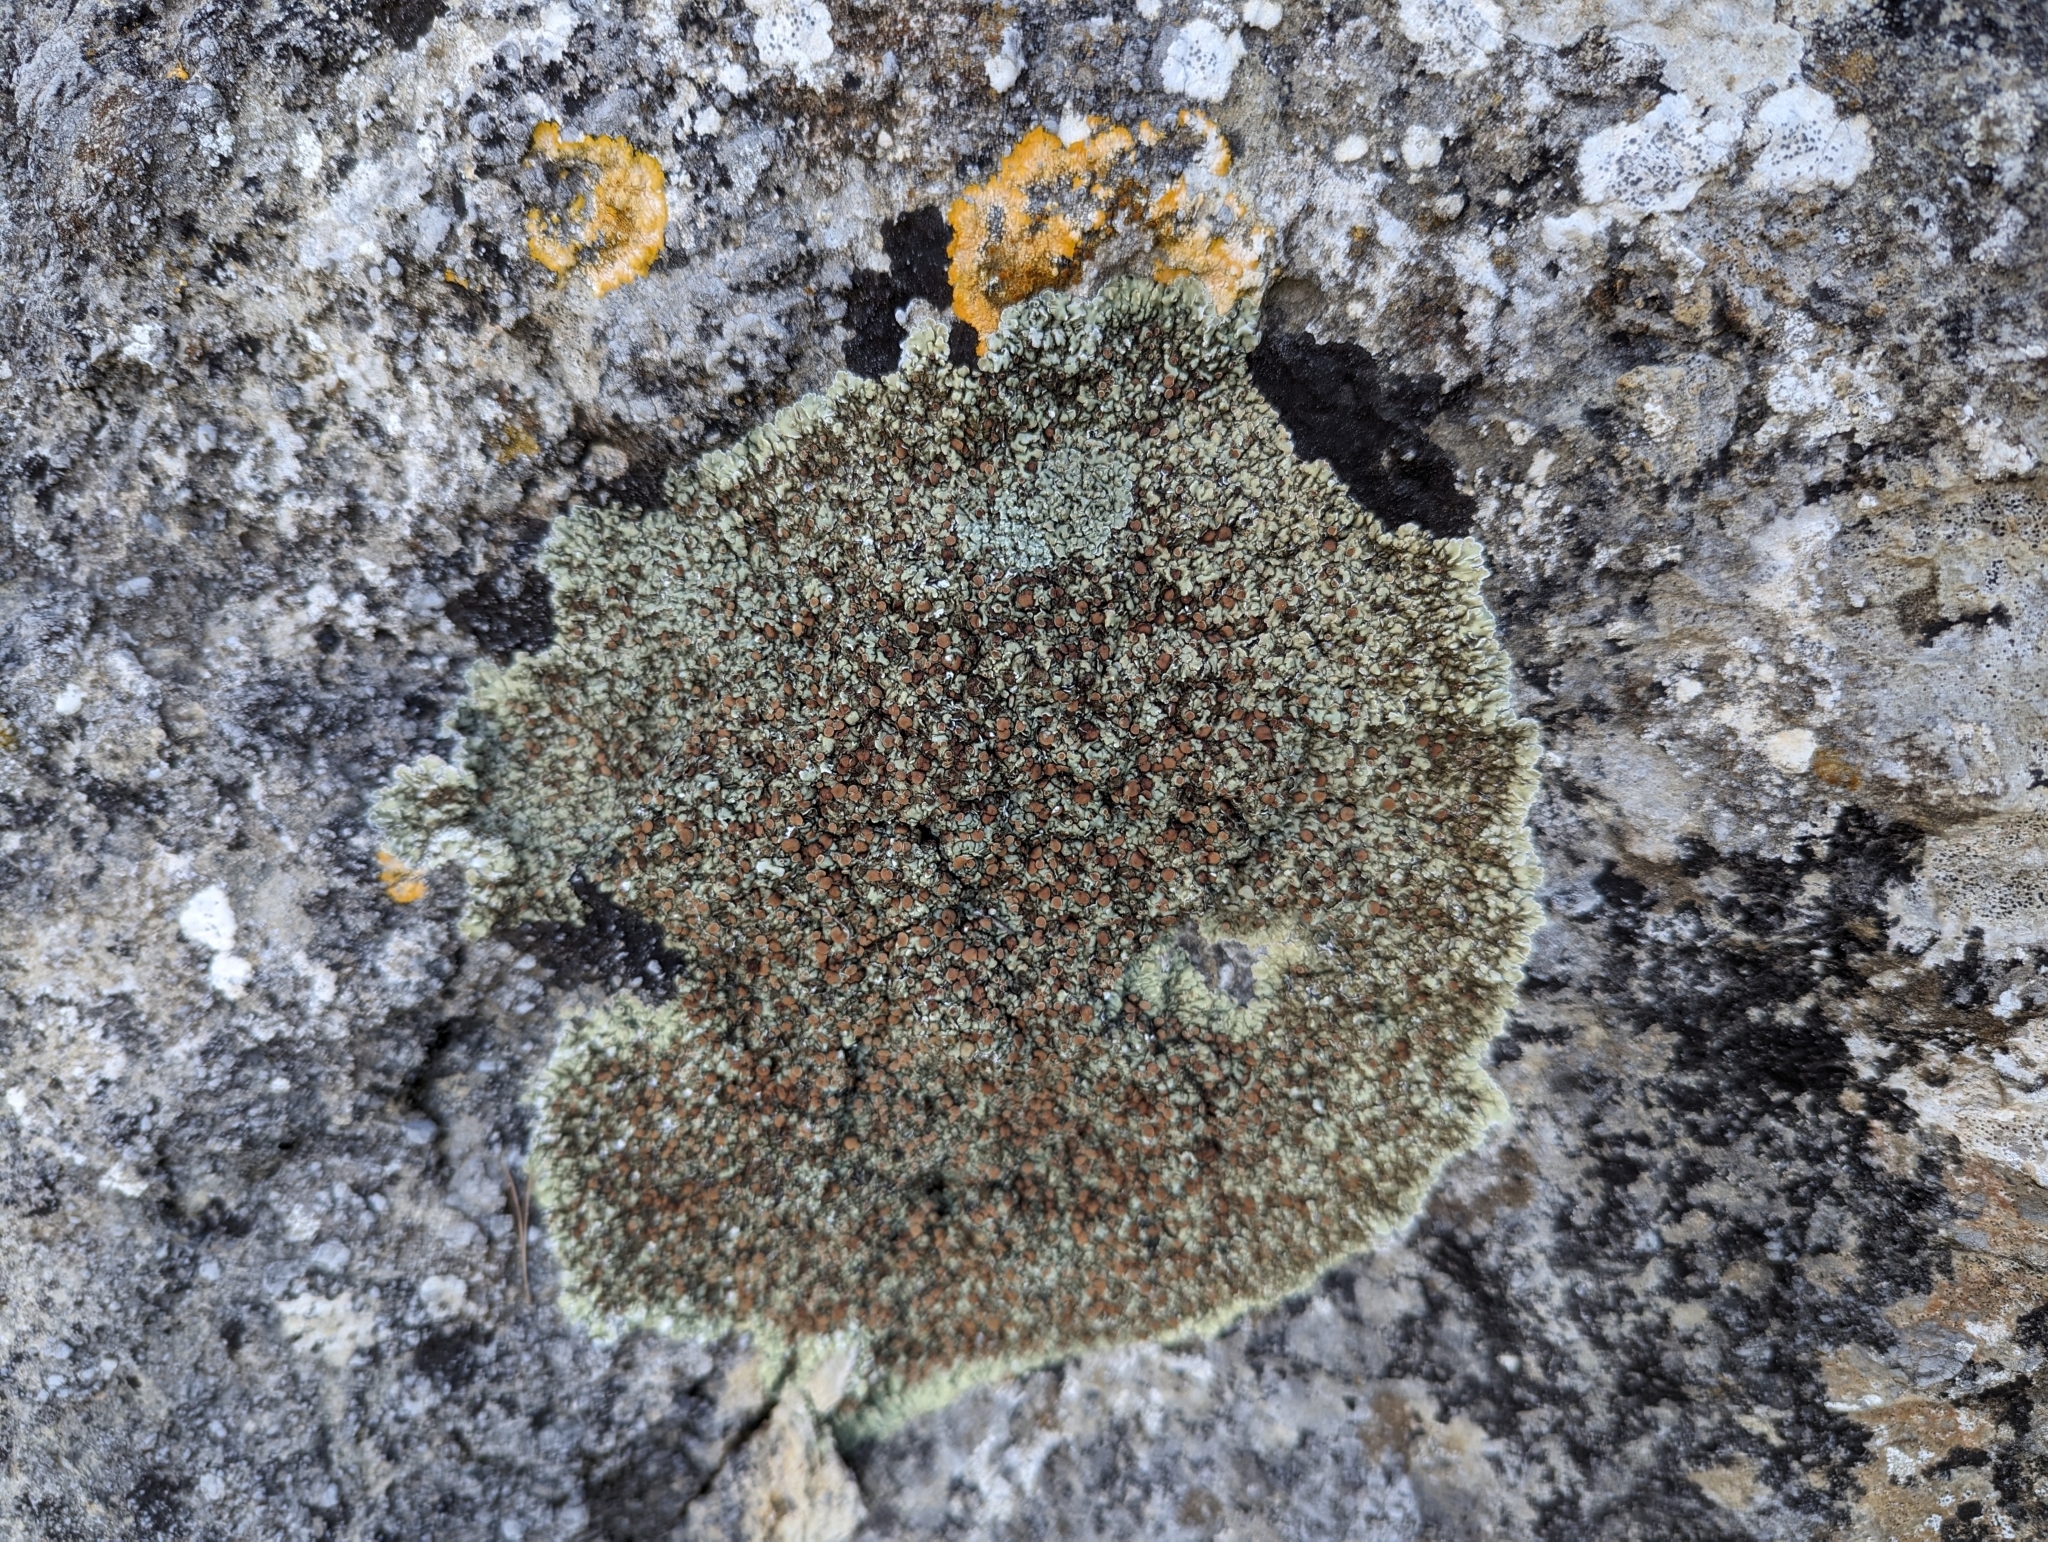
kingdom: Fungi
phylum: Ascomycota
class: Lecanoromycetes
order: Lecanorales
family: Stereocaulaceae
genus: Squamarina
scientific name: Squamarina cartilaginea
